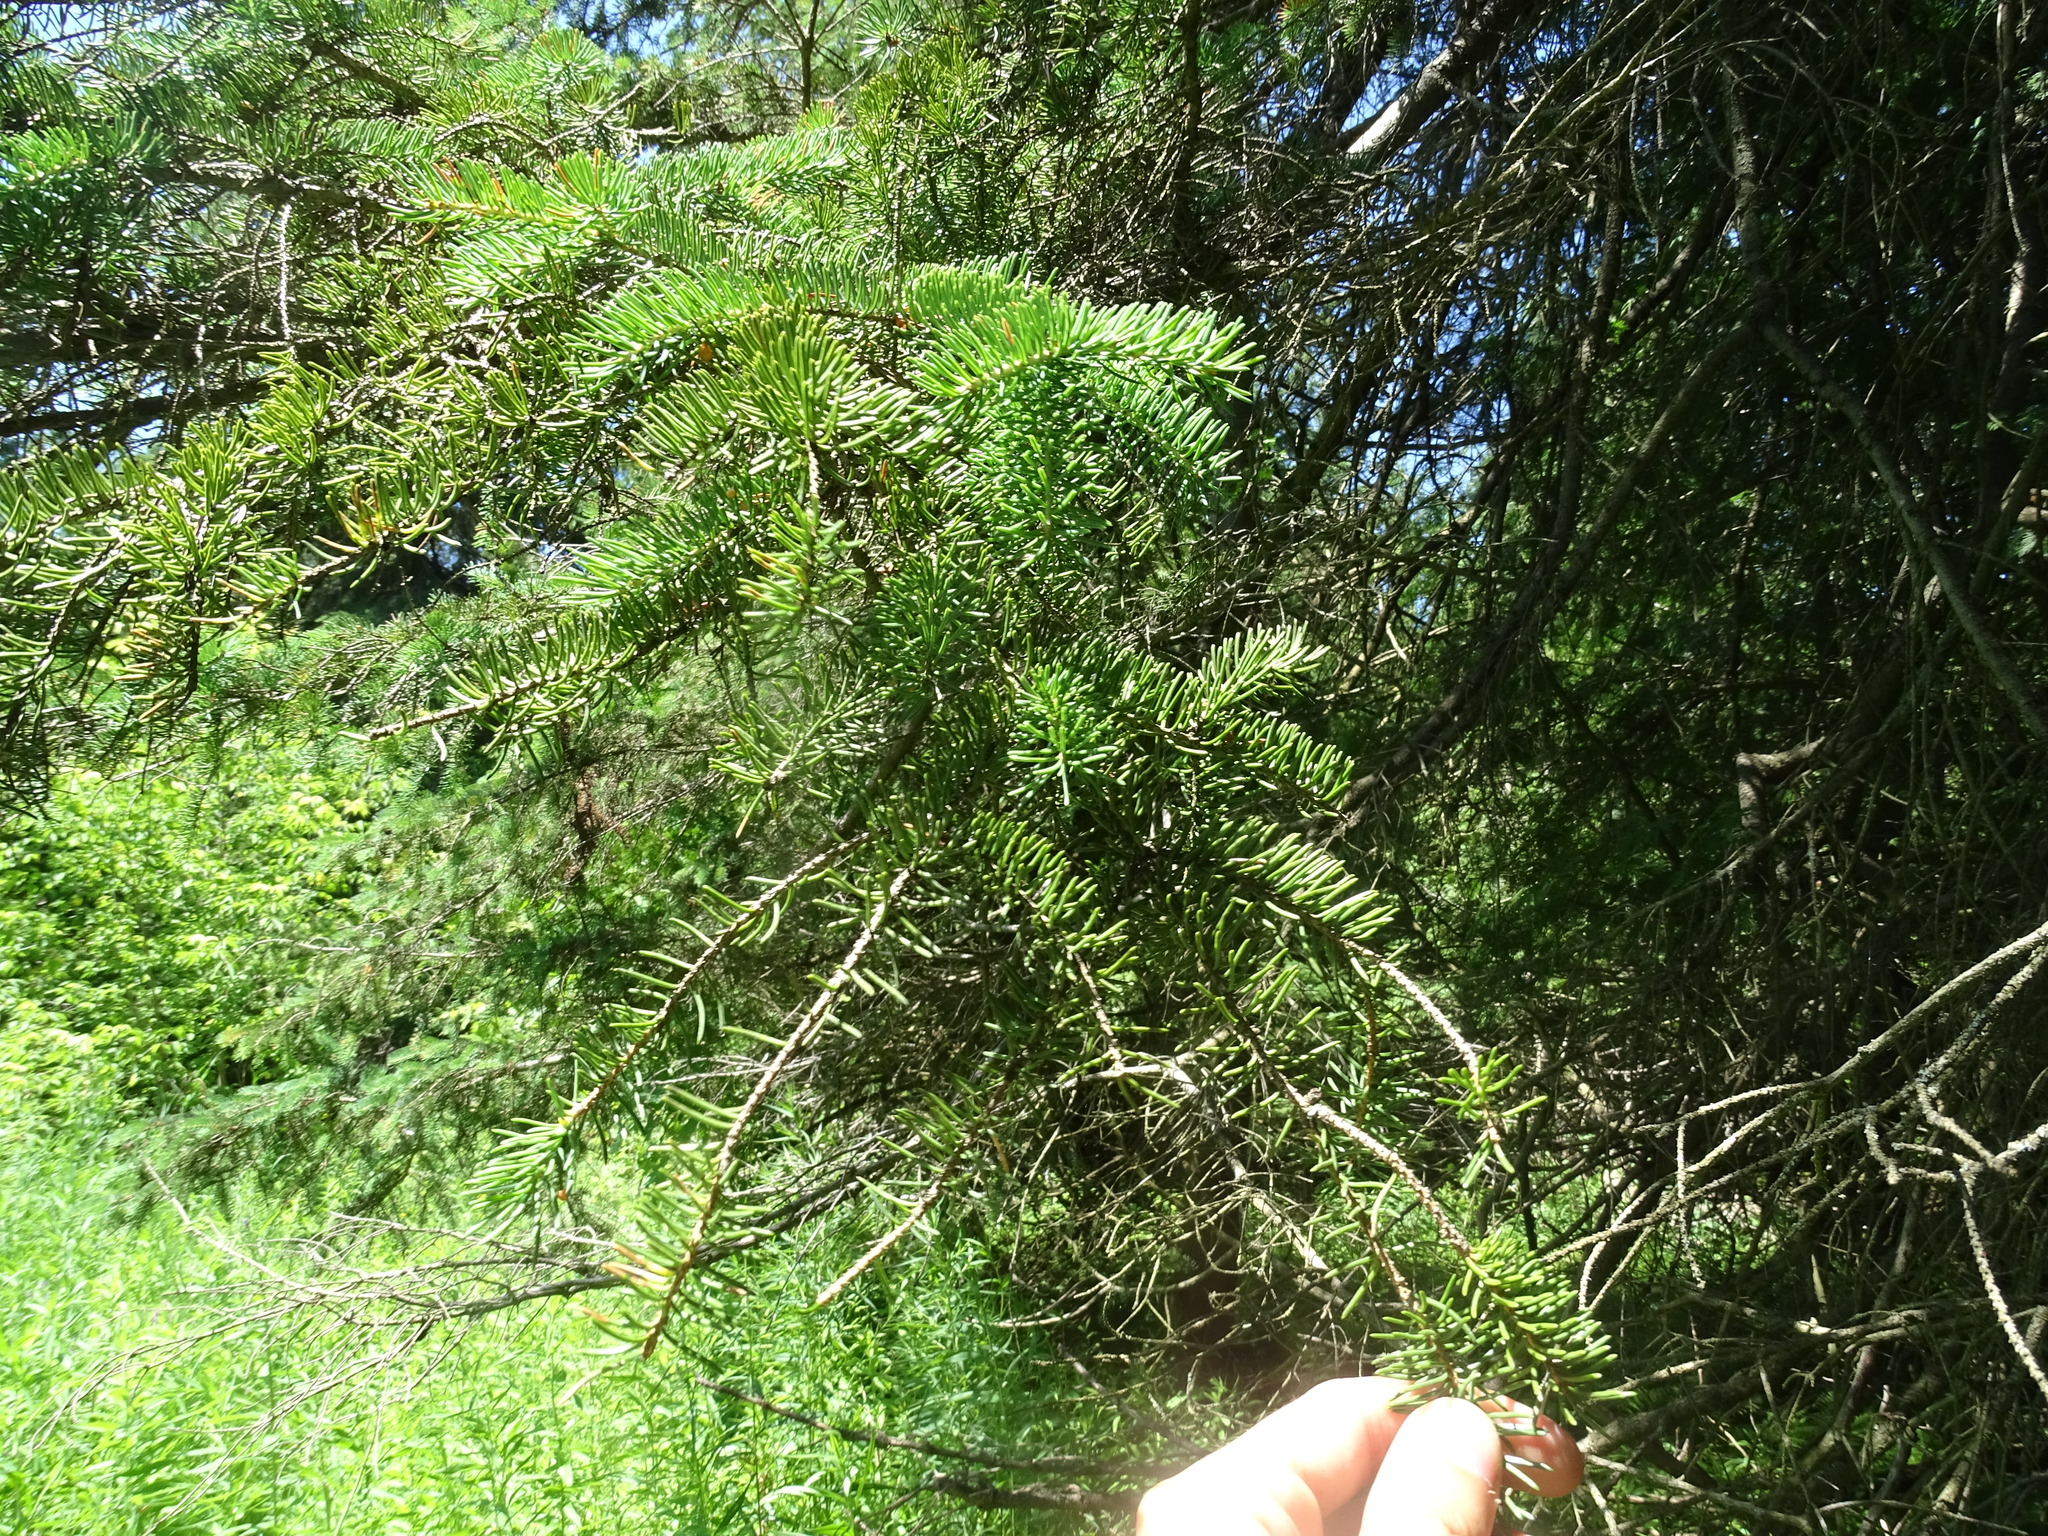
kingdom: Plantae
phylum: Tracheophyta
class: Pinopsida
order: Pinales
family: Pinaceae
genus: Picea
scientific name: Picea glauca
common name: White spruce
